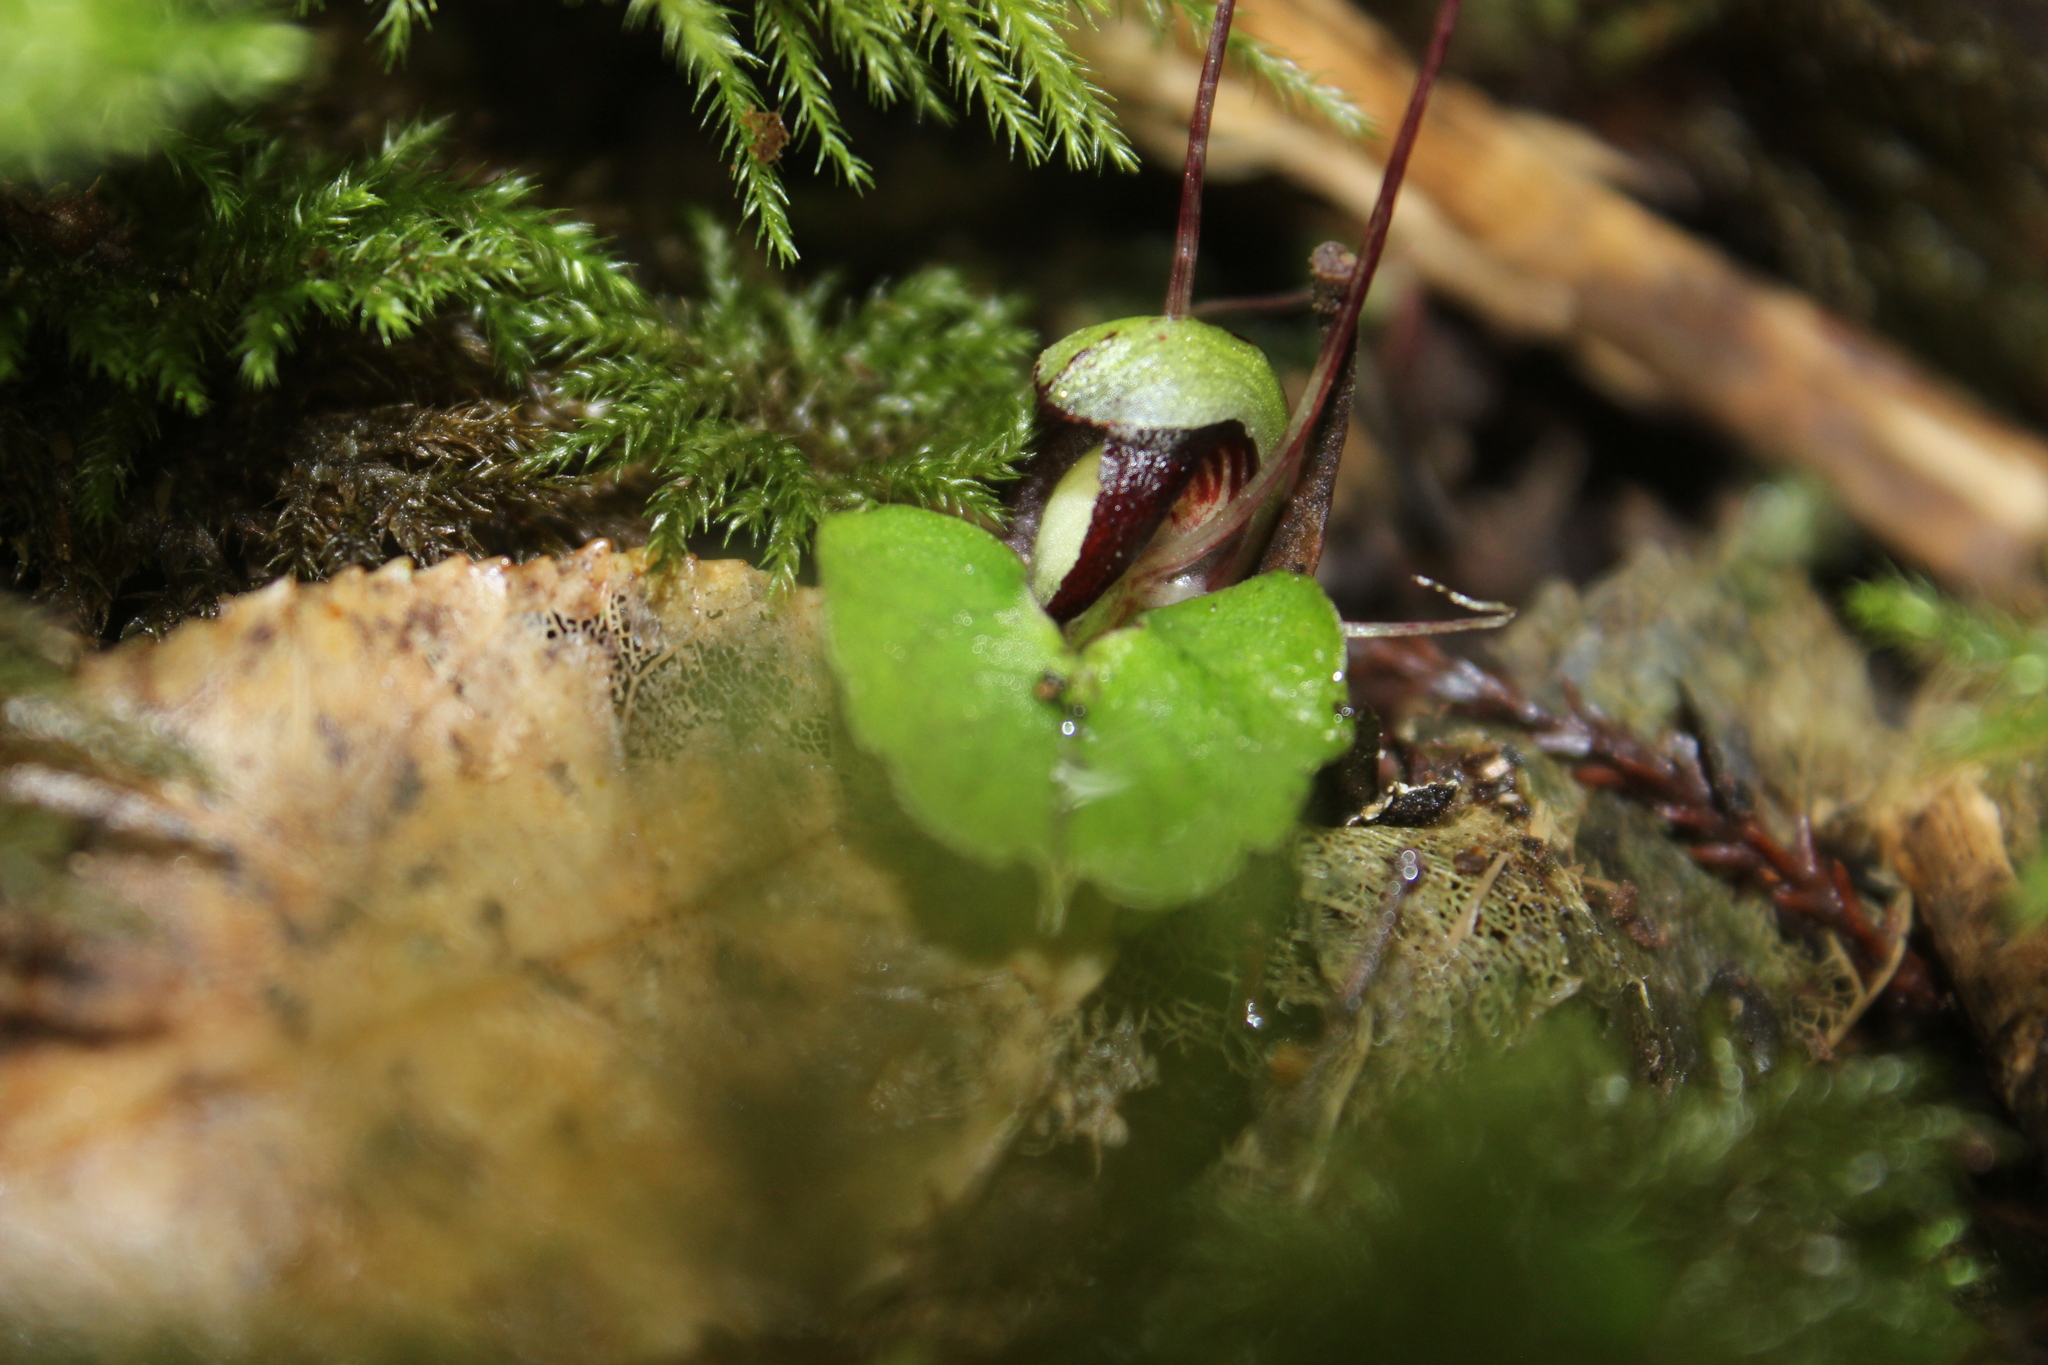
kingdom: Plantae
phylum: Tracheophyta
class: Liliopsida
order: Asparagales
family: Orchidaceae
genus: Corybas
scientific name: Corybas sanctigeorgianus
